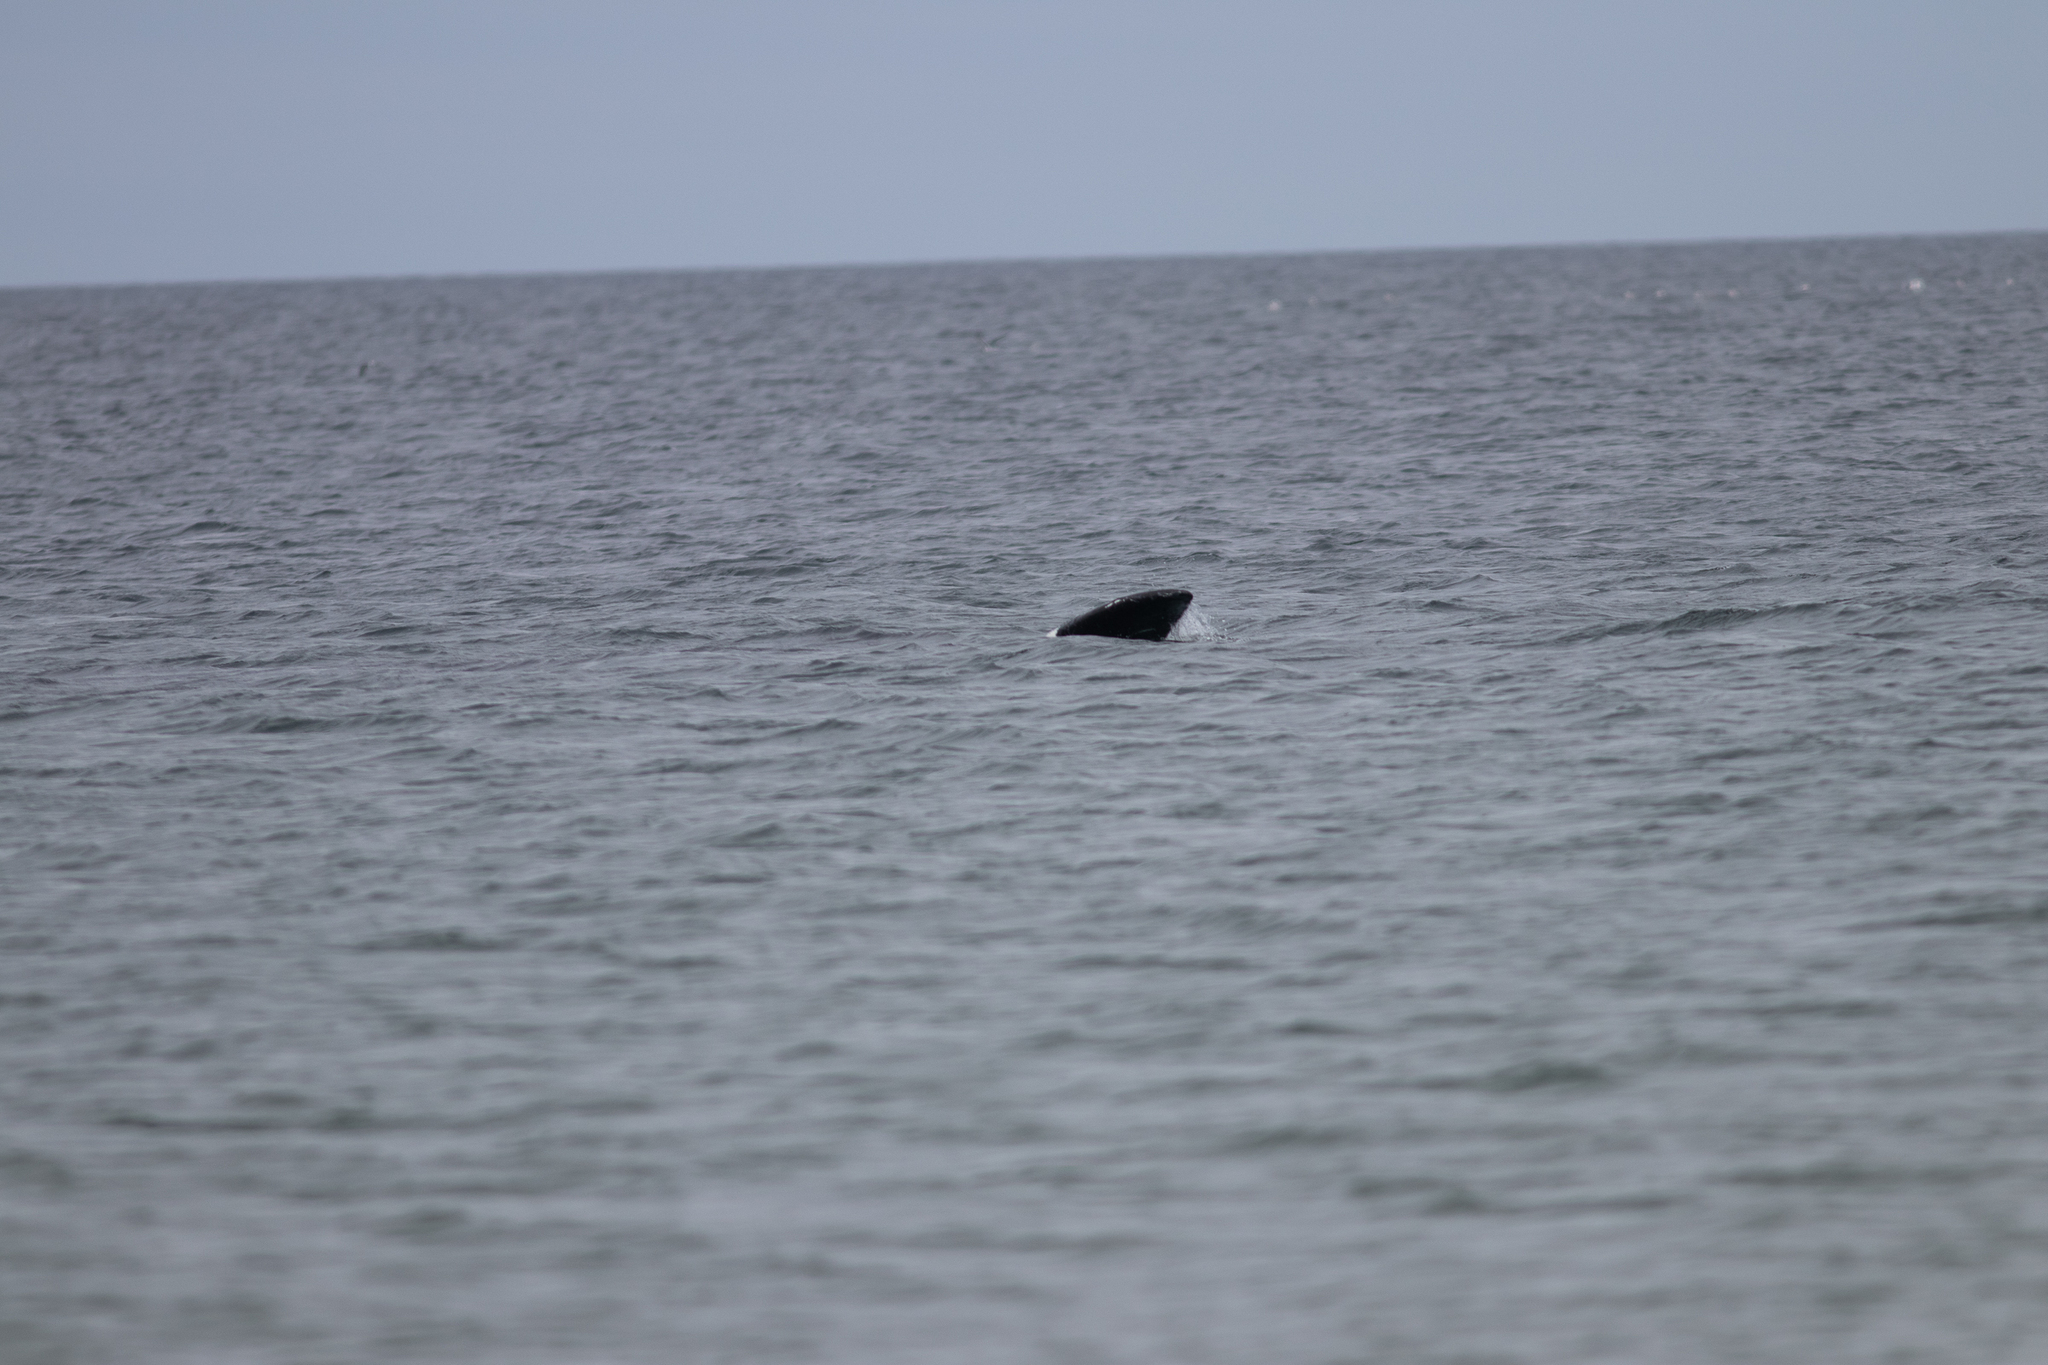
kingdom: Animalia
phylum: Chordata
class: Mammalia
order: Cetacea
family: Balaenidae
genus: Eubalaena
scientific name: Eubalaena glacialis
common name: North atlantic right whale
